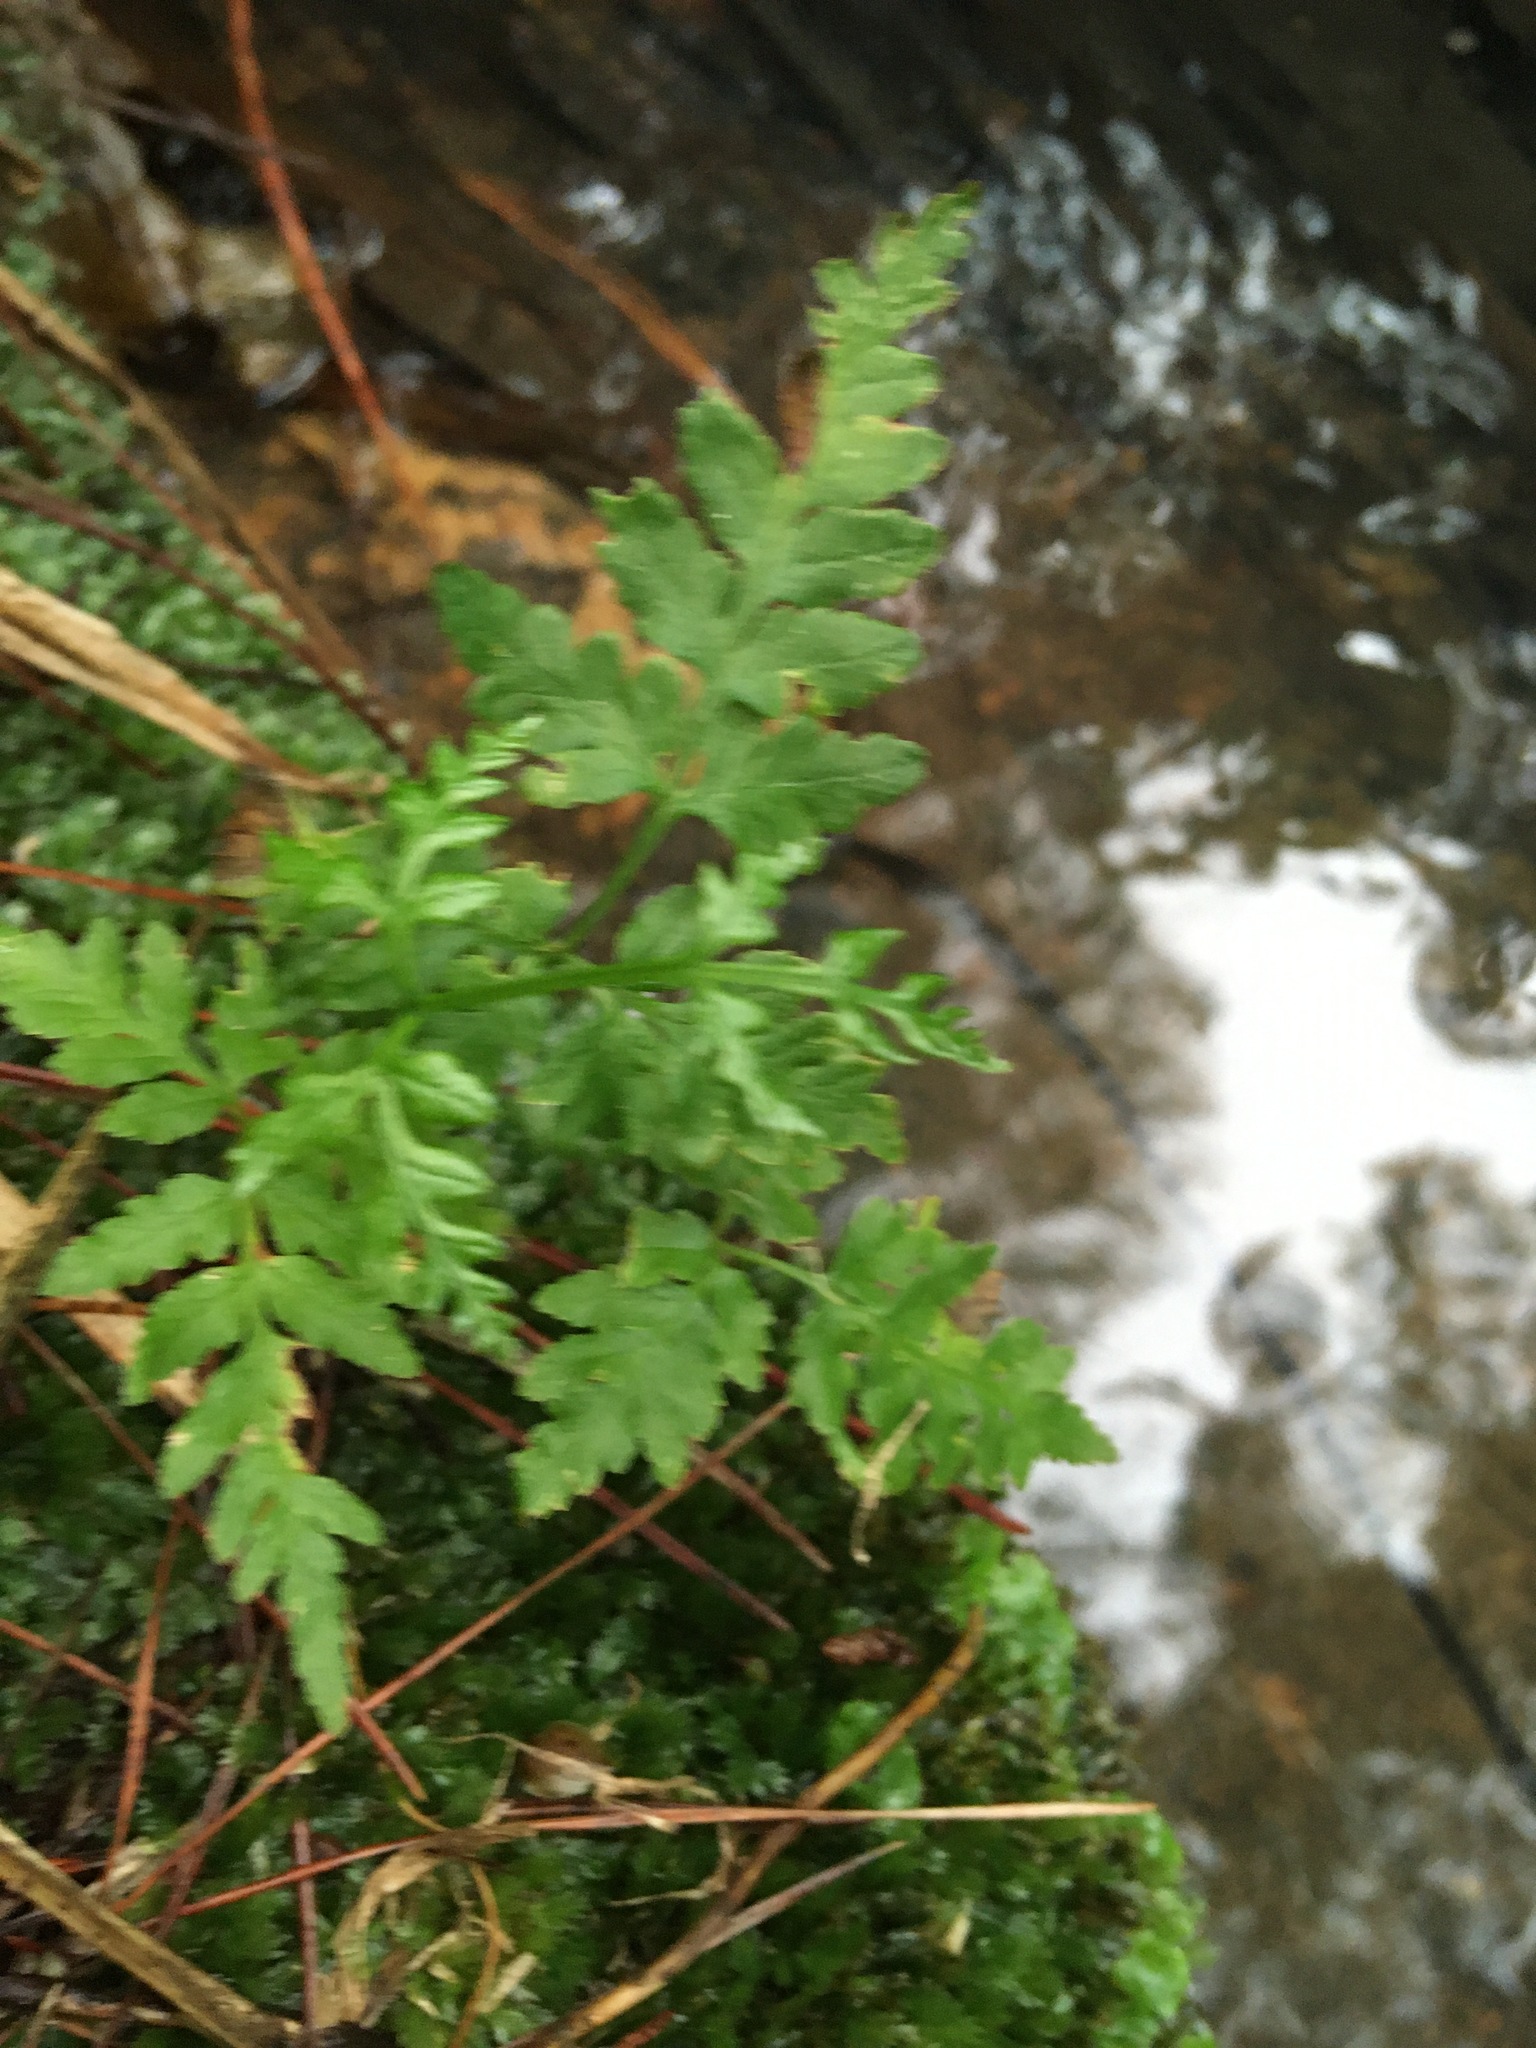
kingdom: Plantae
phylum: Tracheophyta
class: Polypodiopsida
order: Polypodiales
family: Pteridaceae
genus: Pteris
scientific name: Pteris tremula
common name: Australian brake
